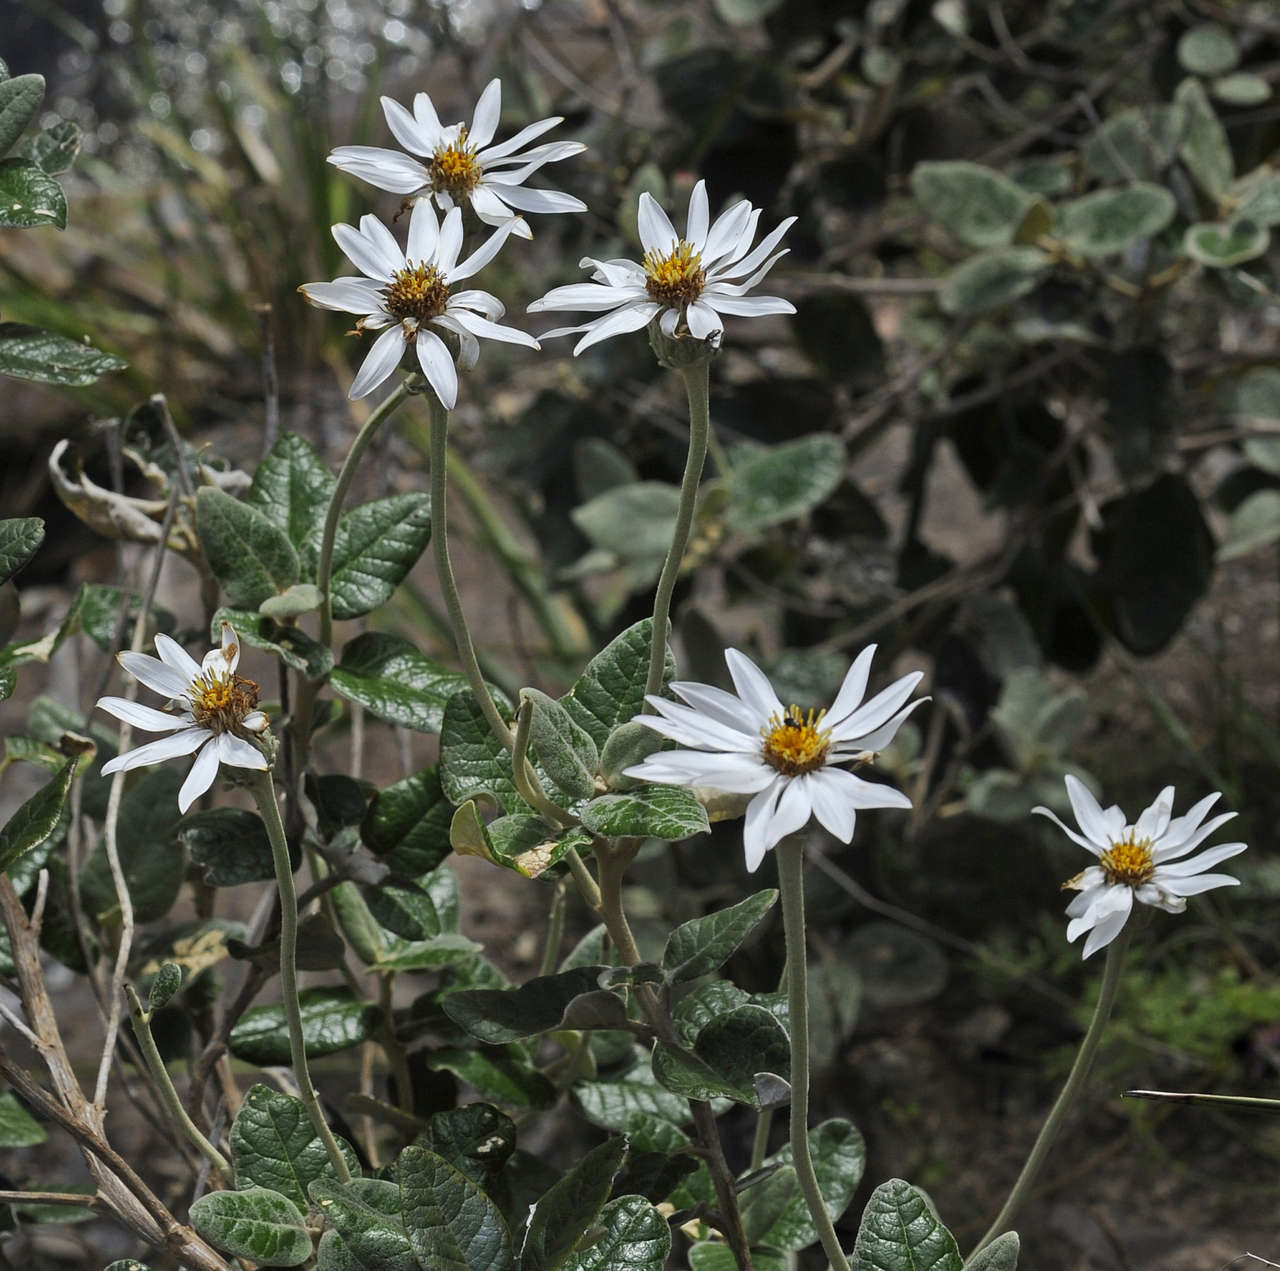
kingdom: Plantae
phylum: Tracheophyta
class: Magnoliopsida
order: Asterales
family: Asteraceae
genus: Olearia
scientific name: Olearia pannosa
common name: Velvet daisybush
